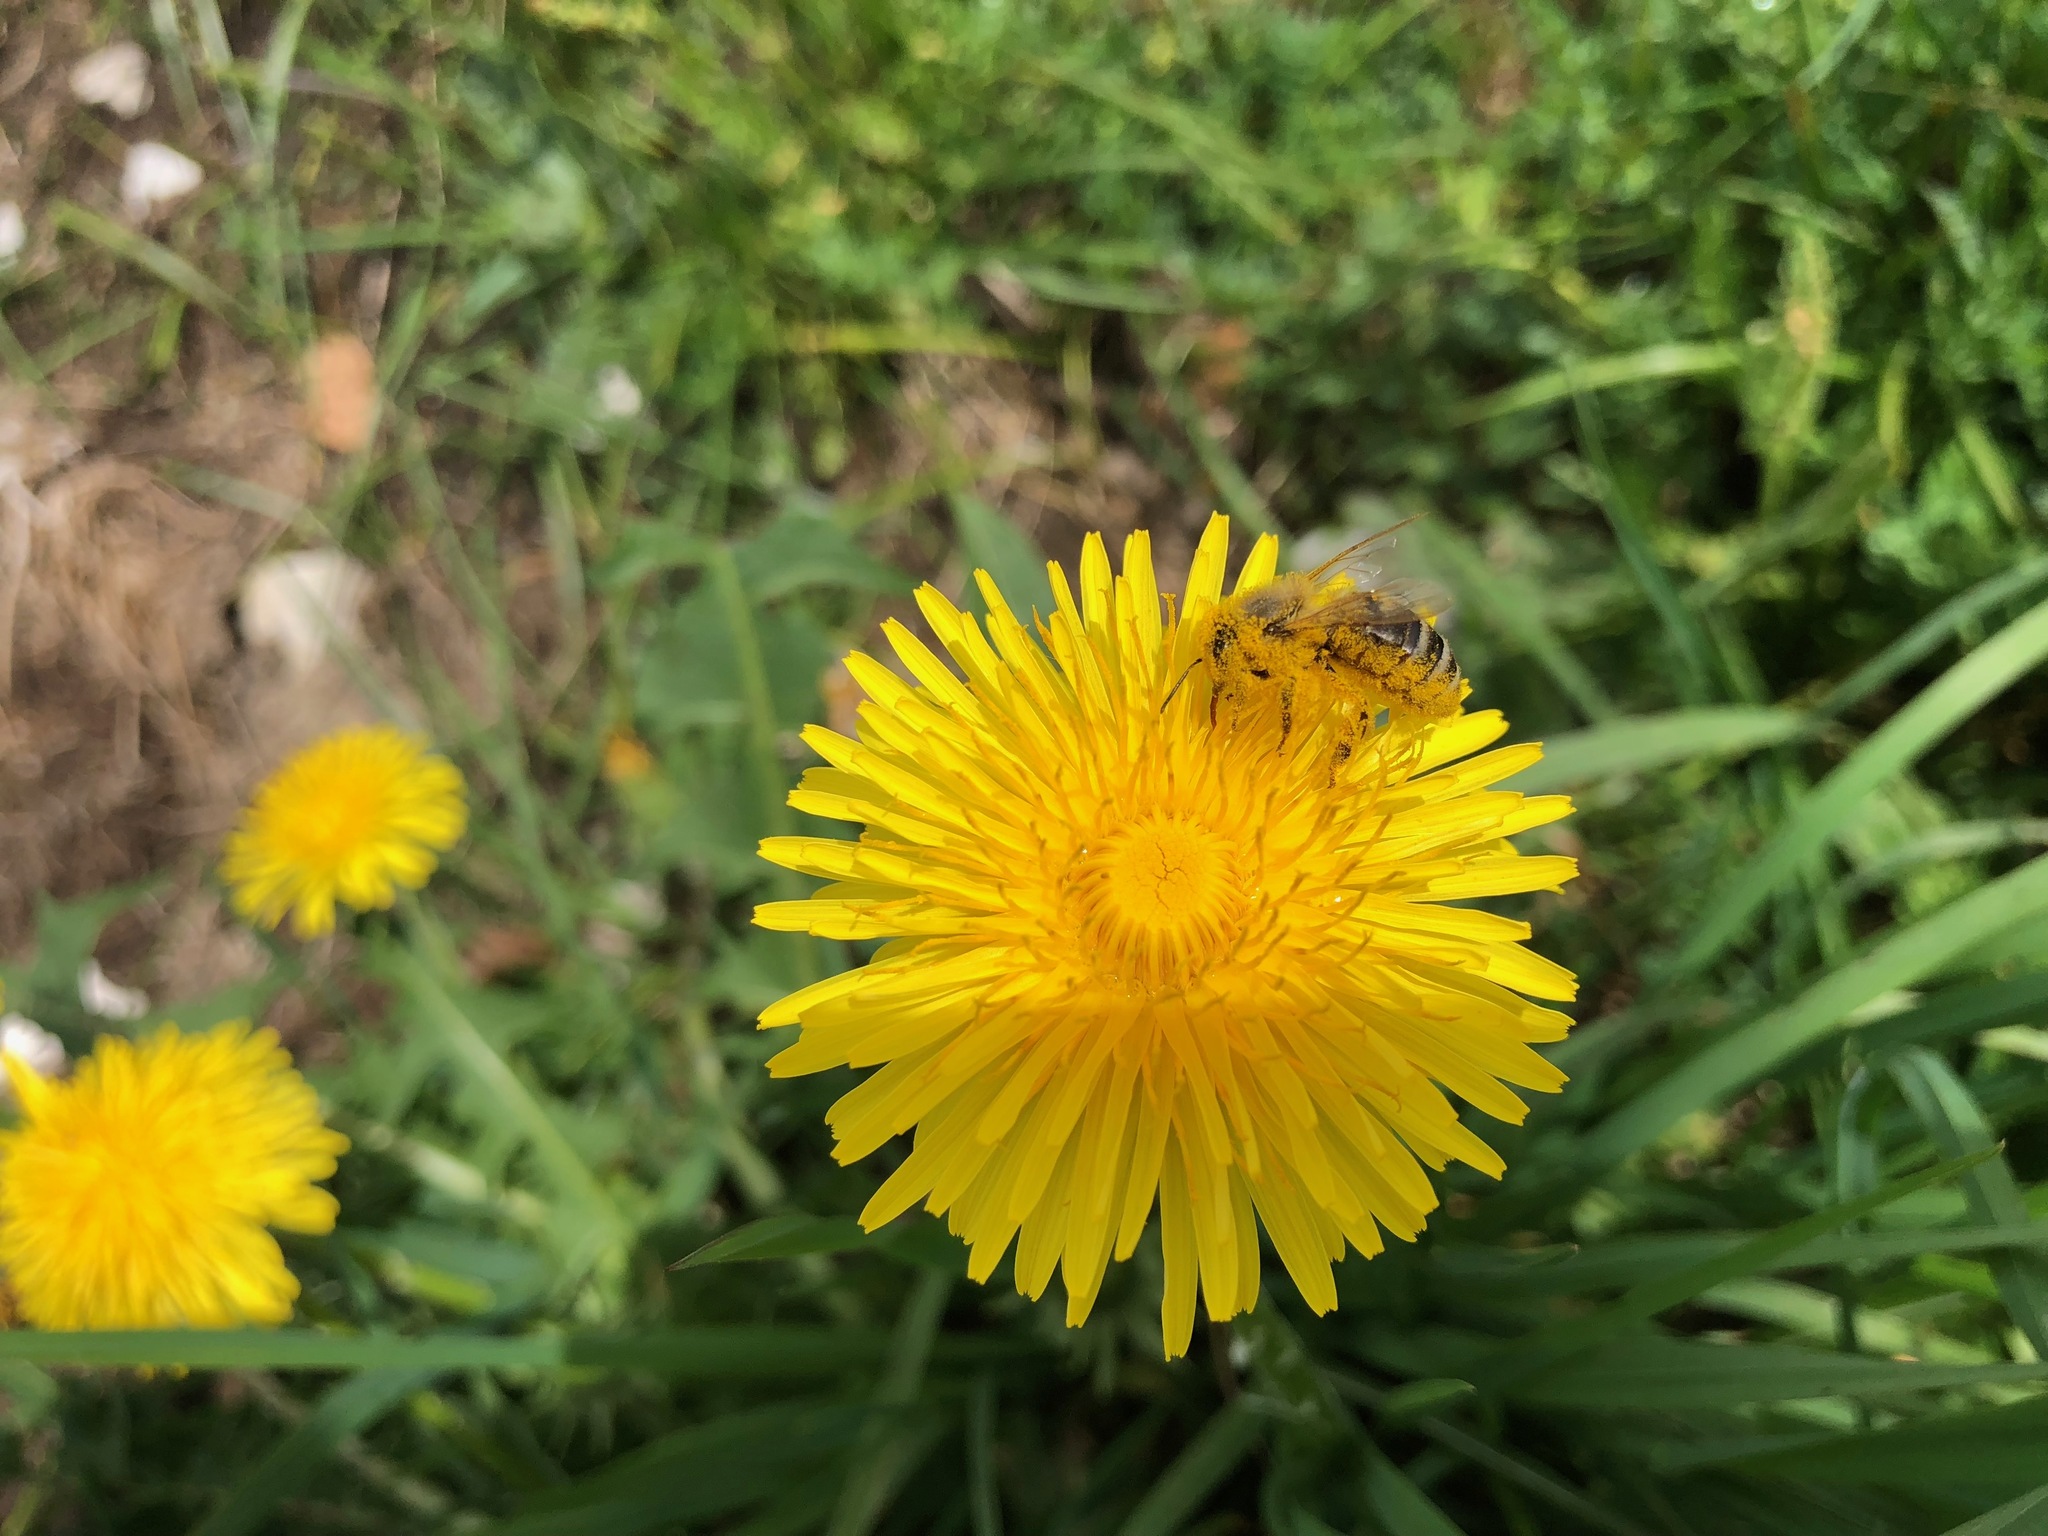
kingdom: Animalia
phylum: Arthropoda
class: Insecta
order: Hymenoptera
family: Apidae
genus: Apis
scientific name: Apis mellifera
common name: Honey bee
